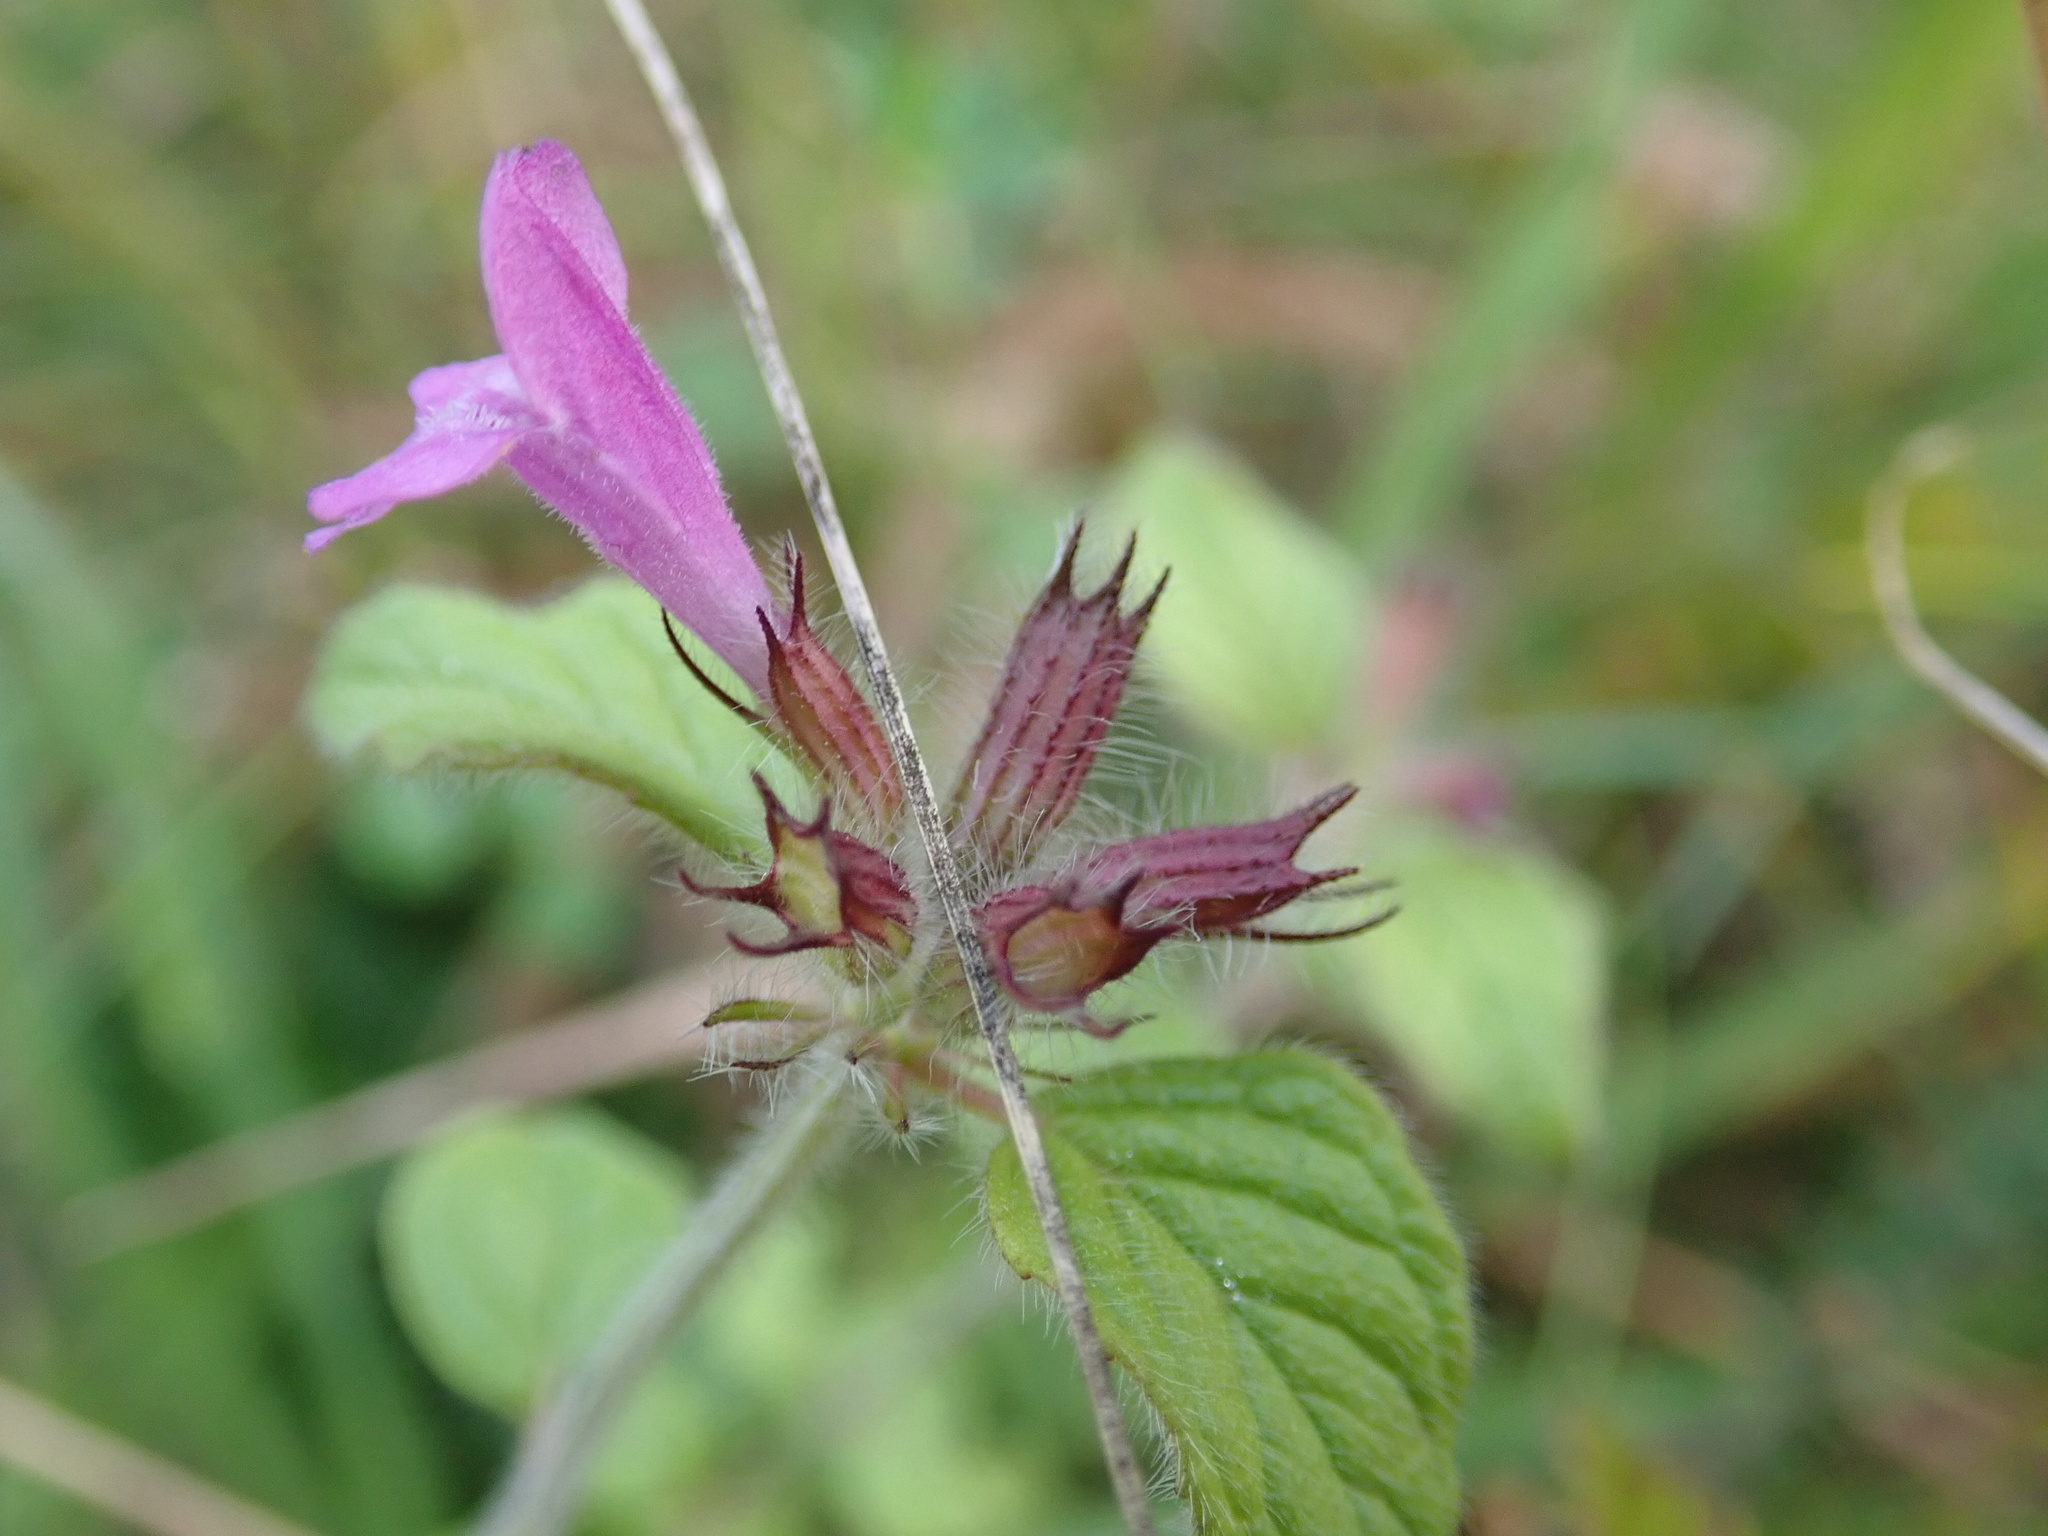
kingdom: Plantae
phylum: Tracheophyta
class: Magnoliopsida
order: Lamiales
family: Lamiaceae
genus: Clinopodium
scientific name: Clinopodium vulgare
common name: Wild basil
